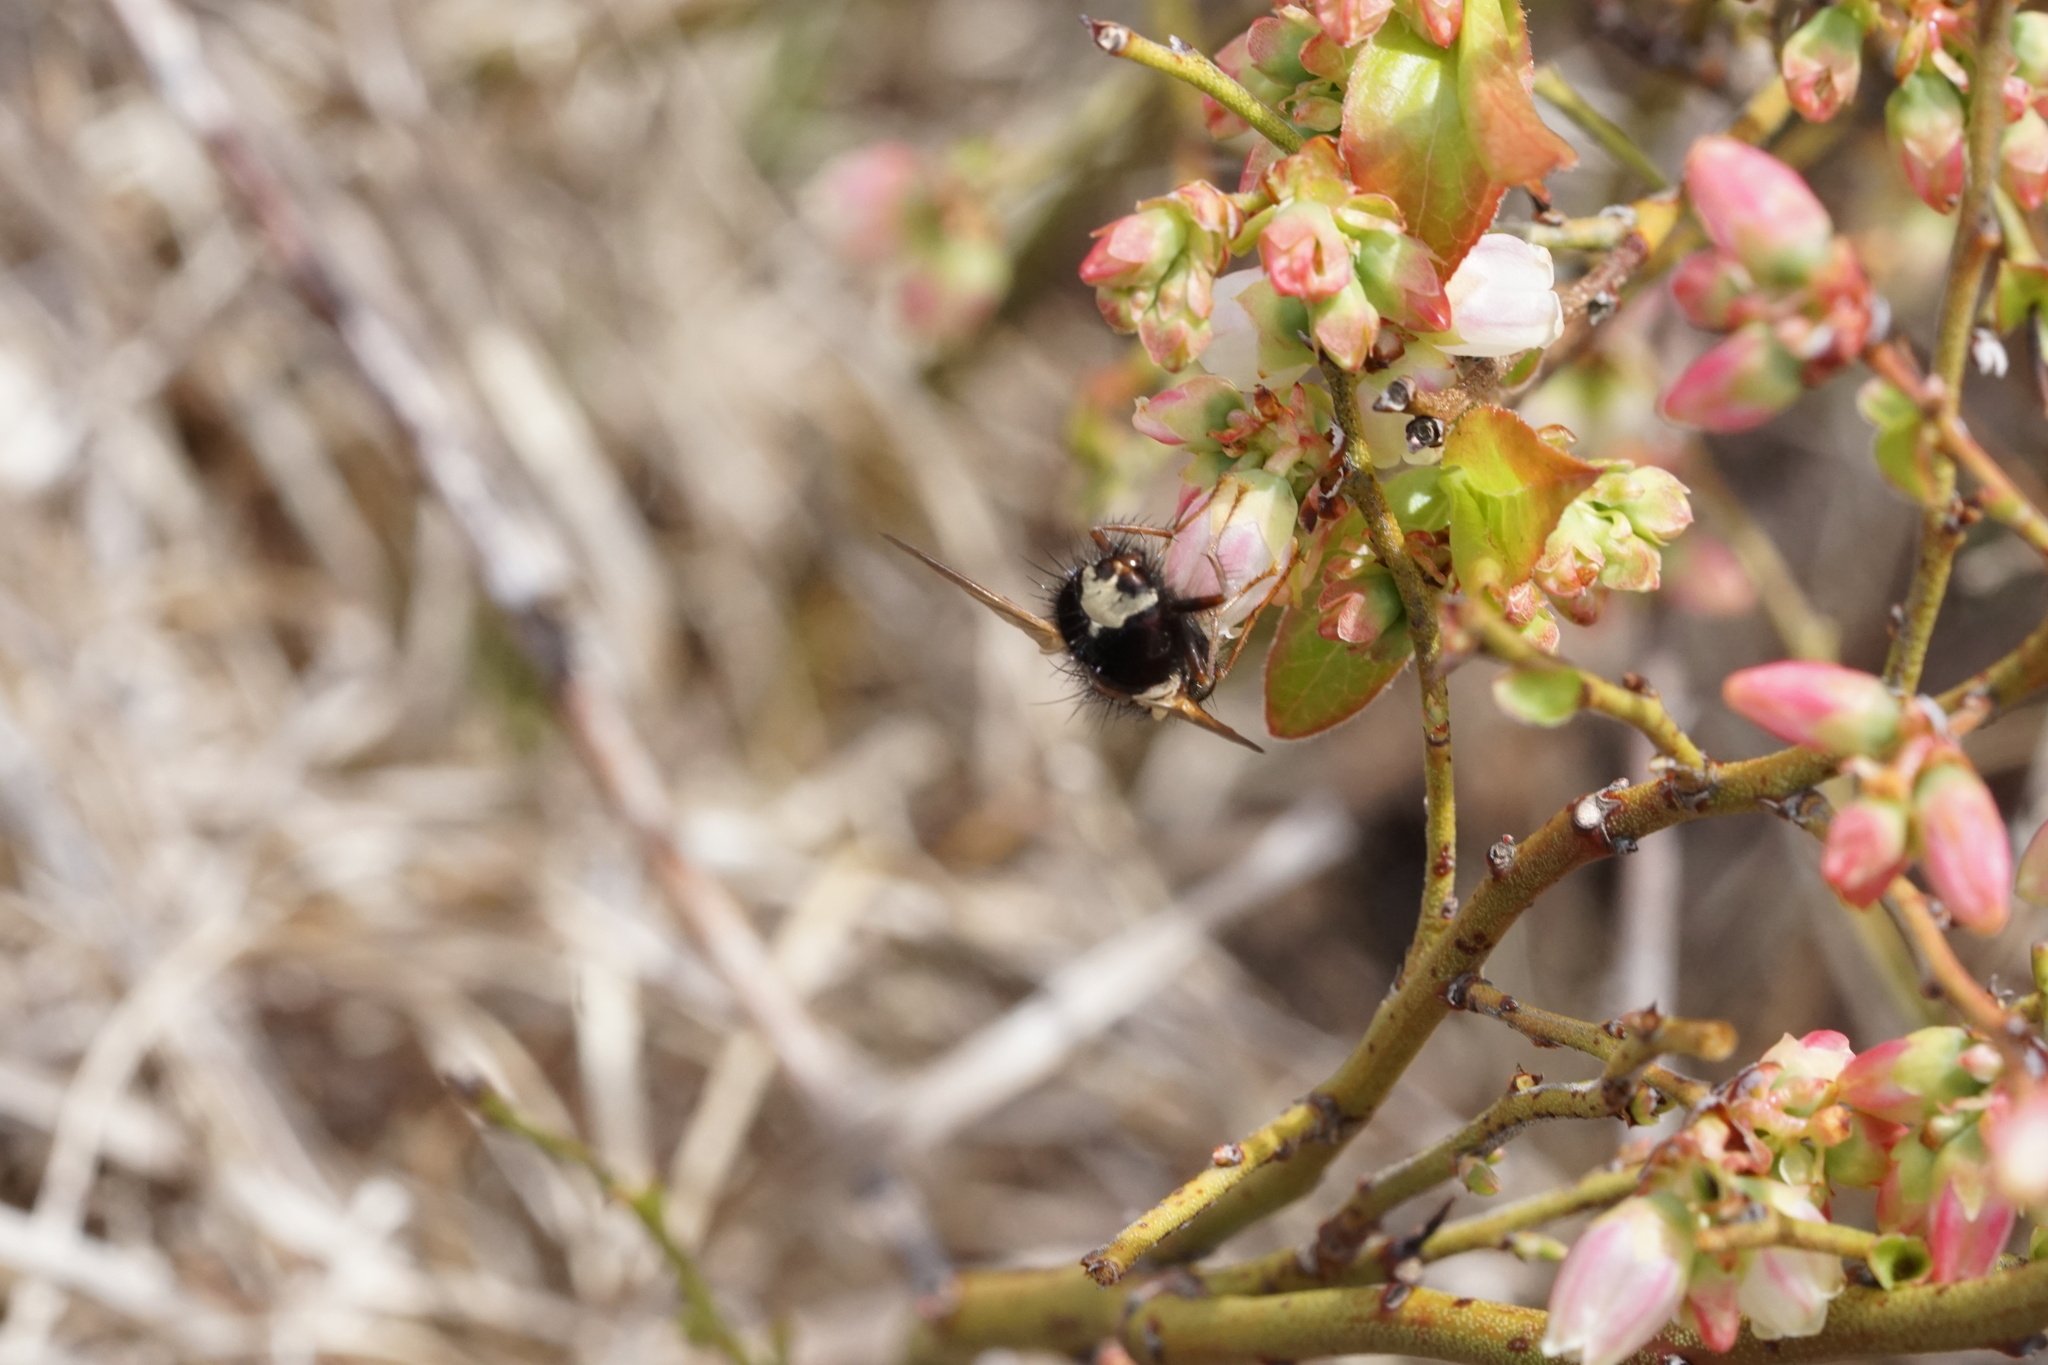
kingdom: Animalia
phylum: Arthropoda
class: Insecta
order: Diptera
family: Tachinidae
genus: Epalpus
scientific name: Epalpus signifer
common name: Early tachinid fly
